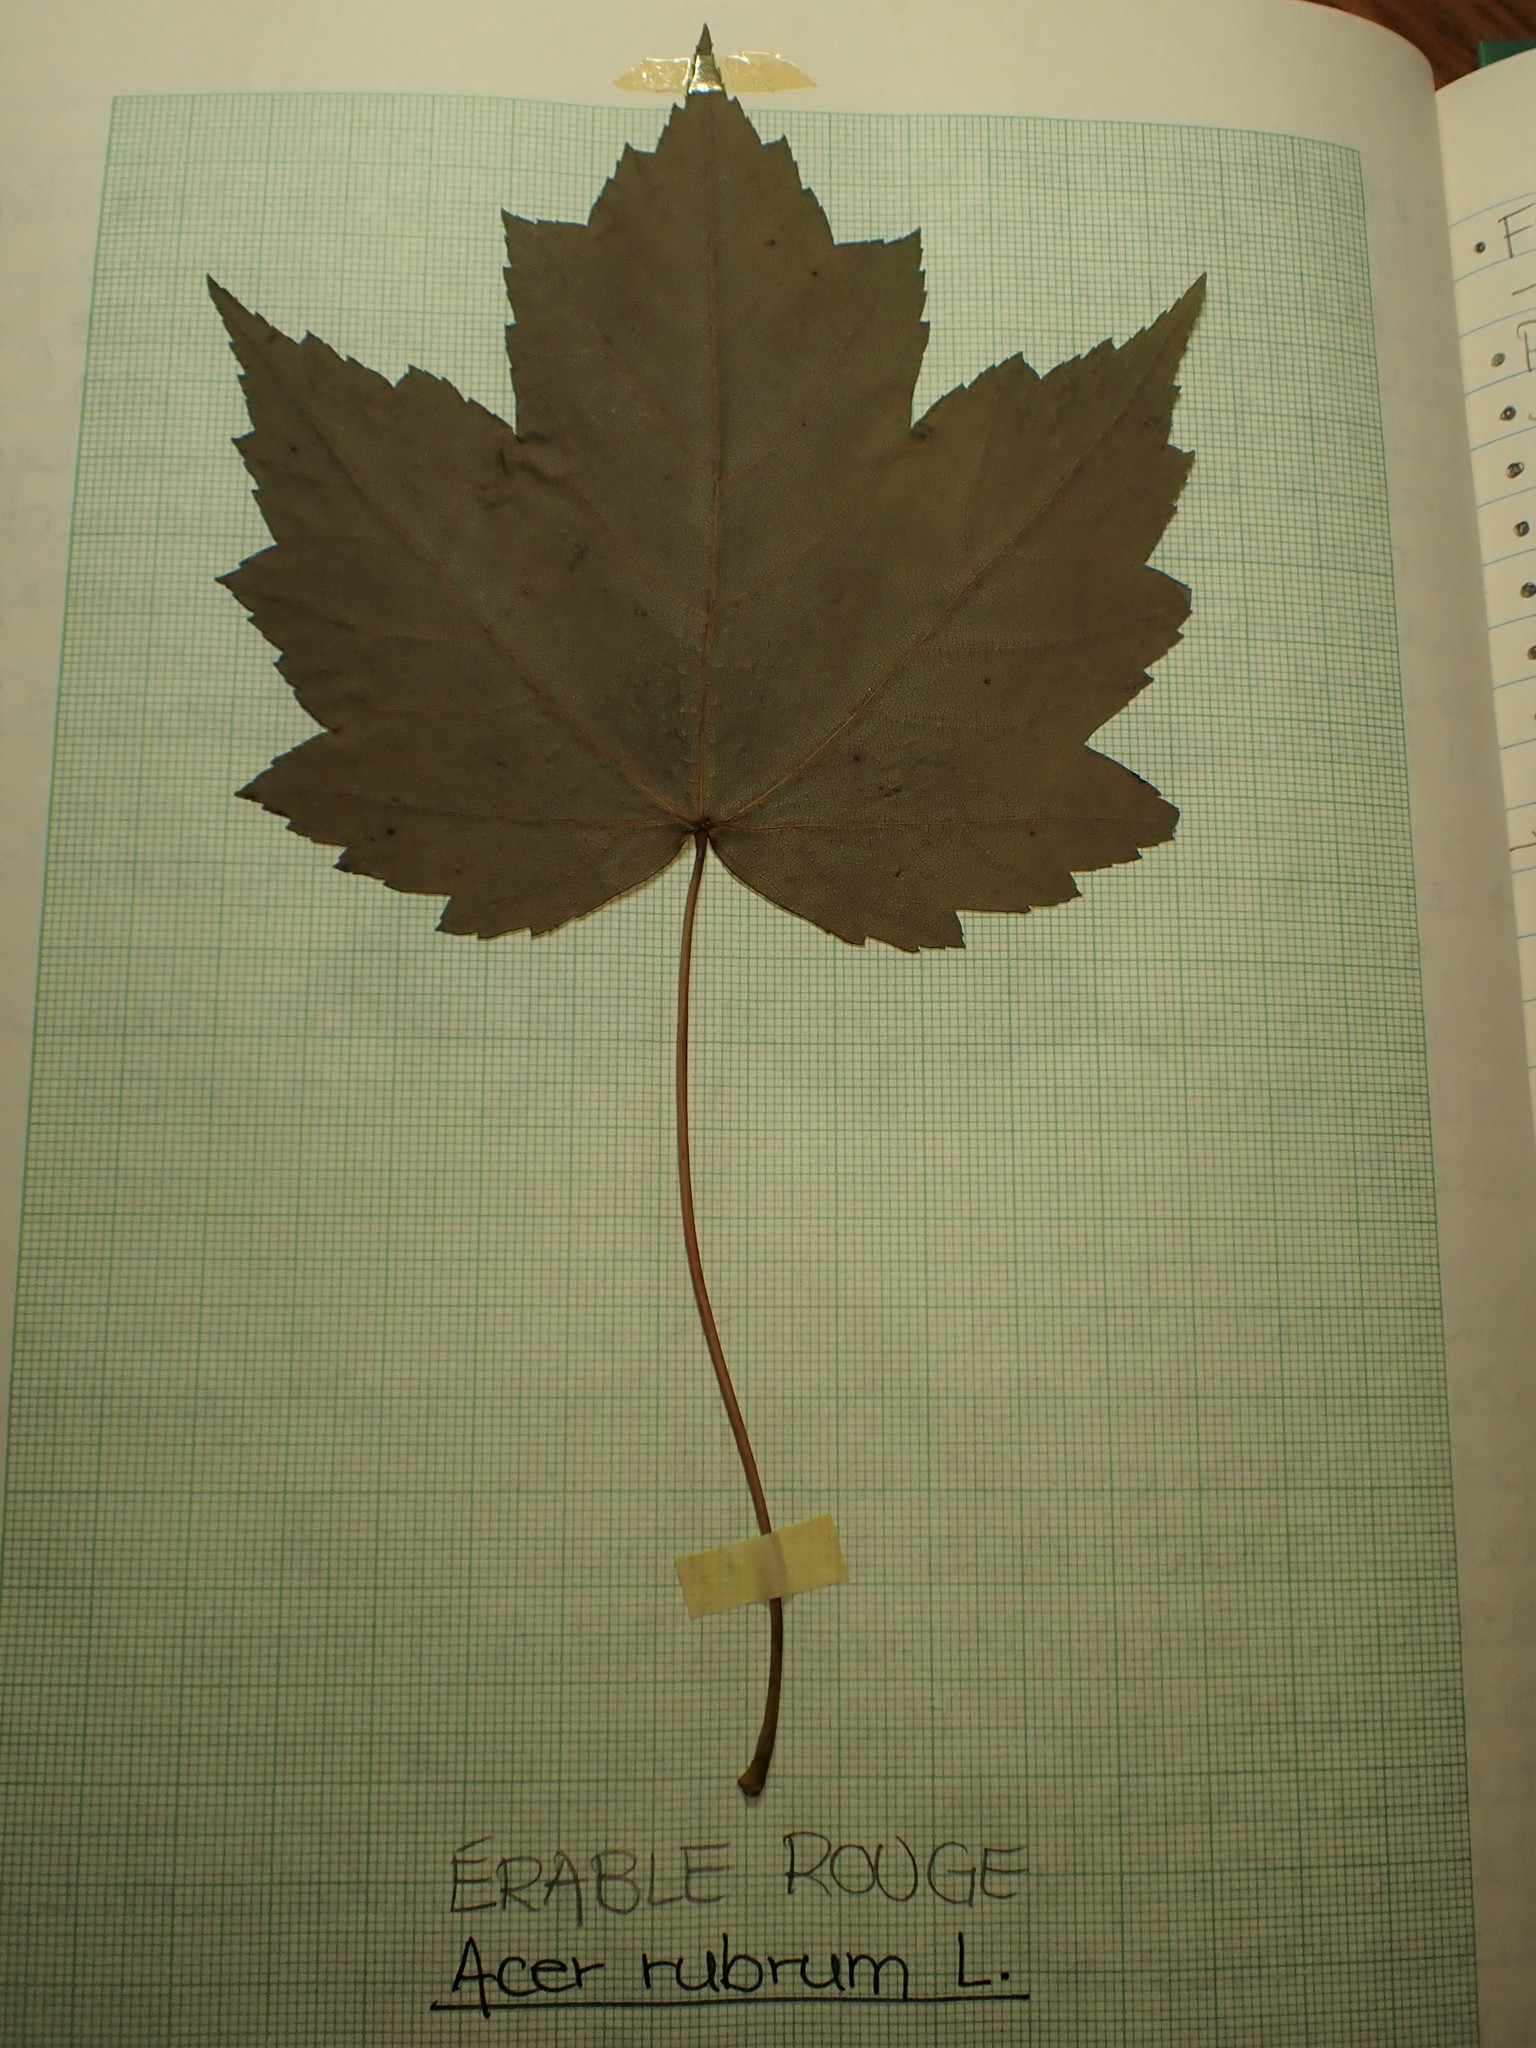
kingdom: Plantae
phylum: Tracheophyta
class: Magnoliopsida
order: Sapindales
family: Sapindaceae
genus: Acer
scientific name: Acer rubrum
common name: Red maple
